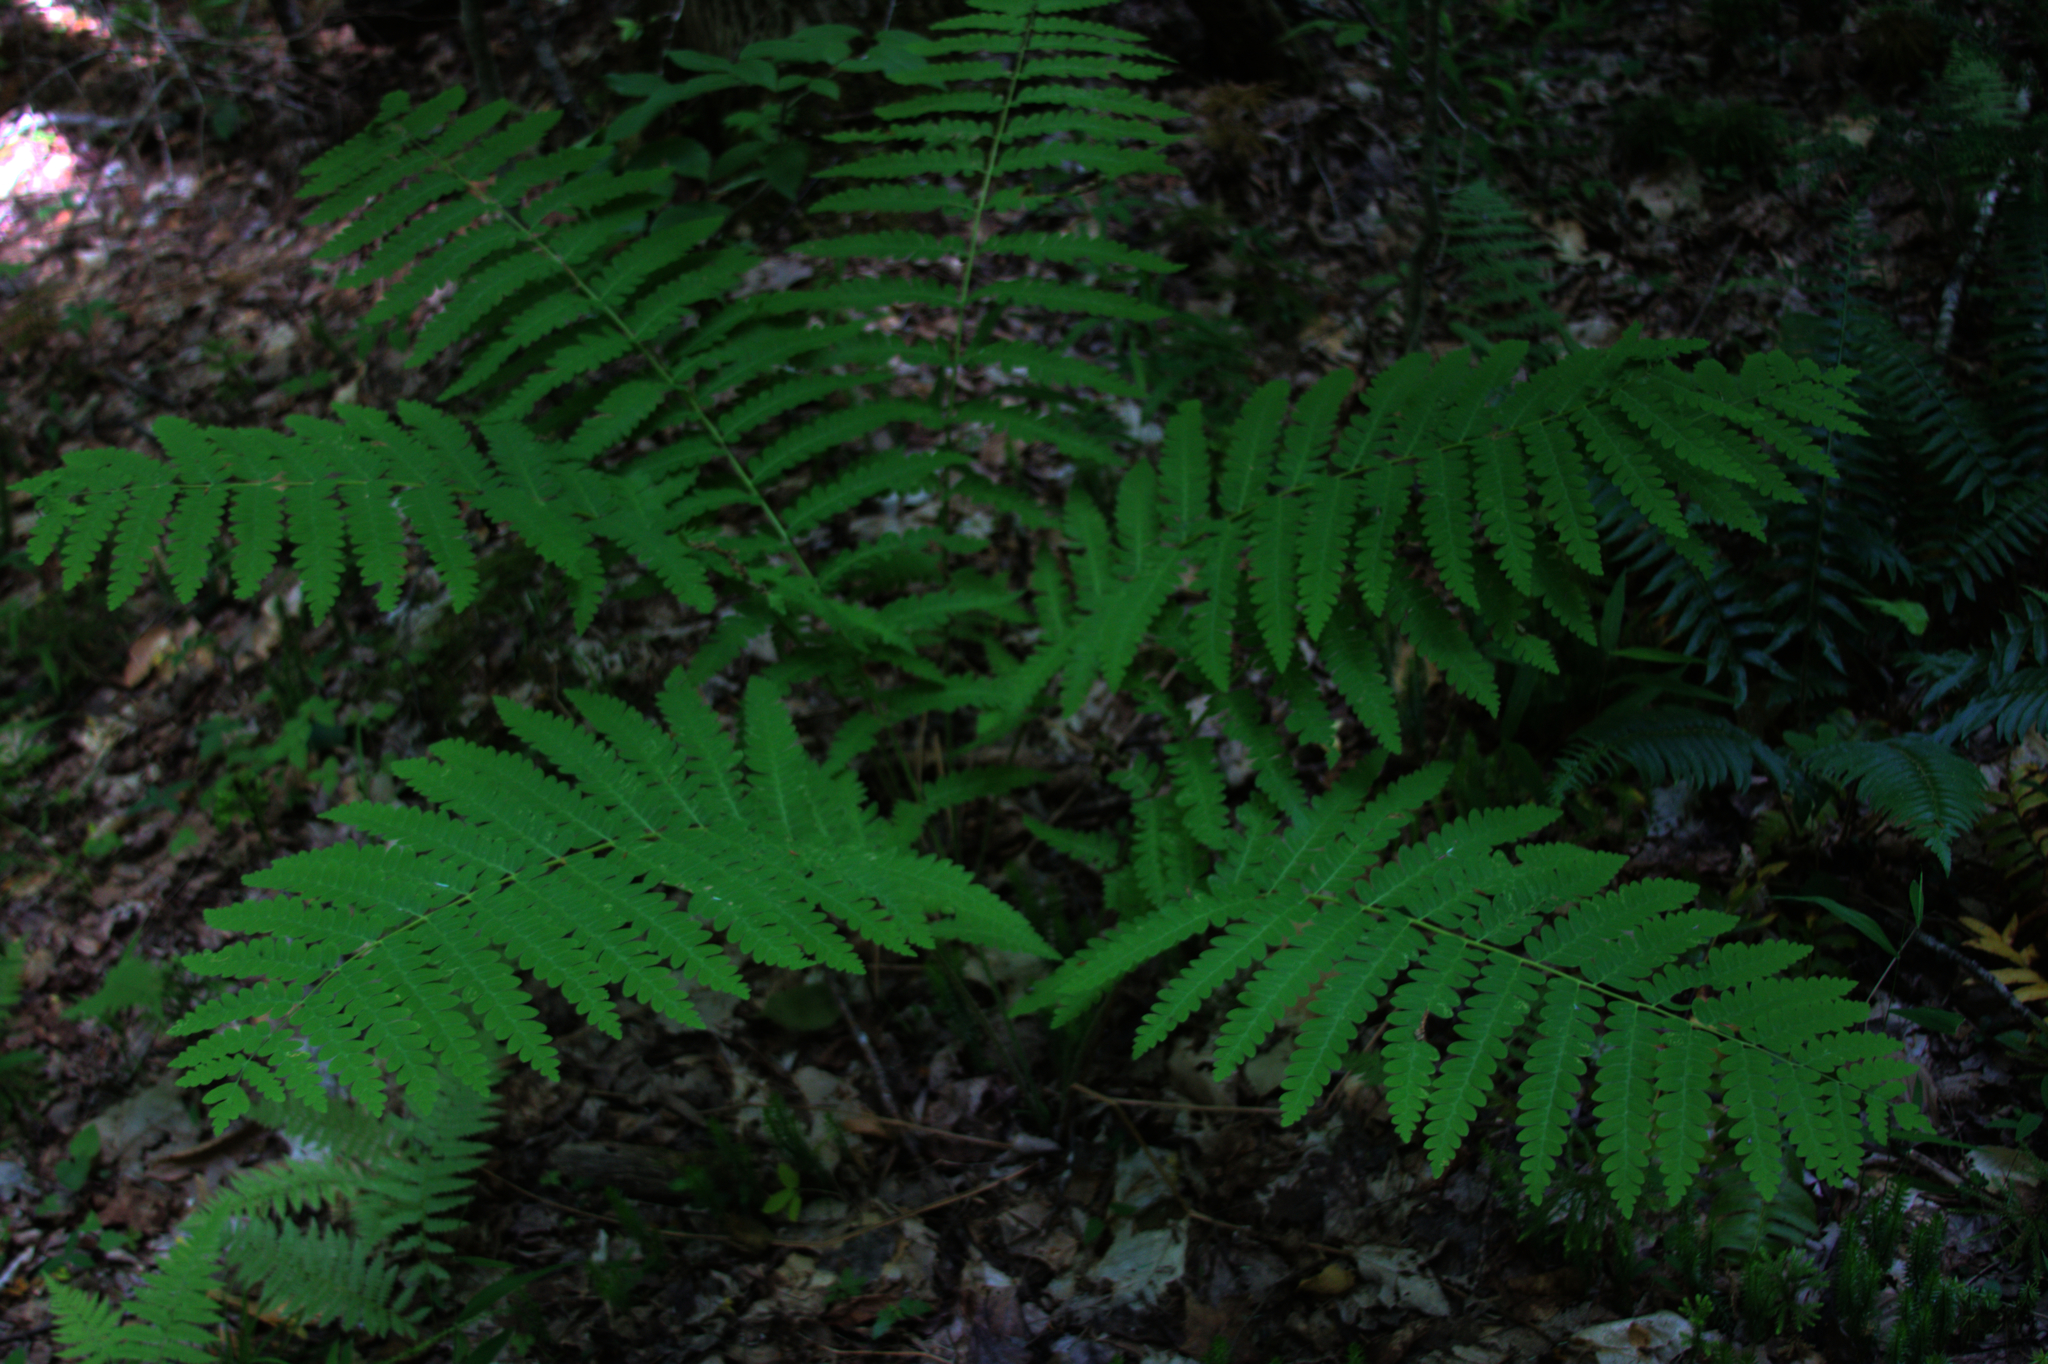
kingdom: Plantae
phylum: Tracheophyta
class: Polypodiopsida
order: Osmundales
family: Osmundaceae
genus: Claytosmunda
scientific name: Claytosmunda claytoniana
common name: Clayton's fern
